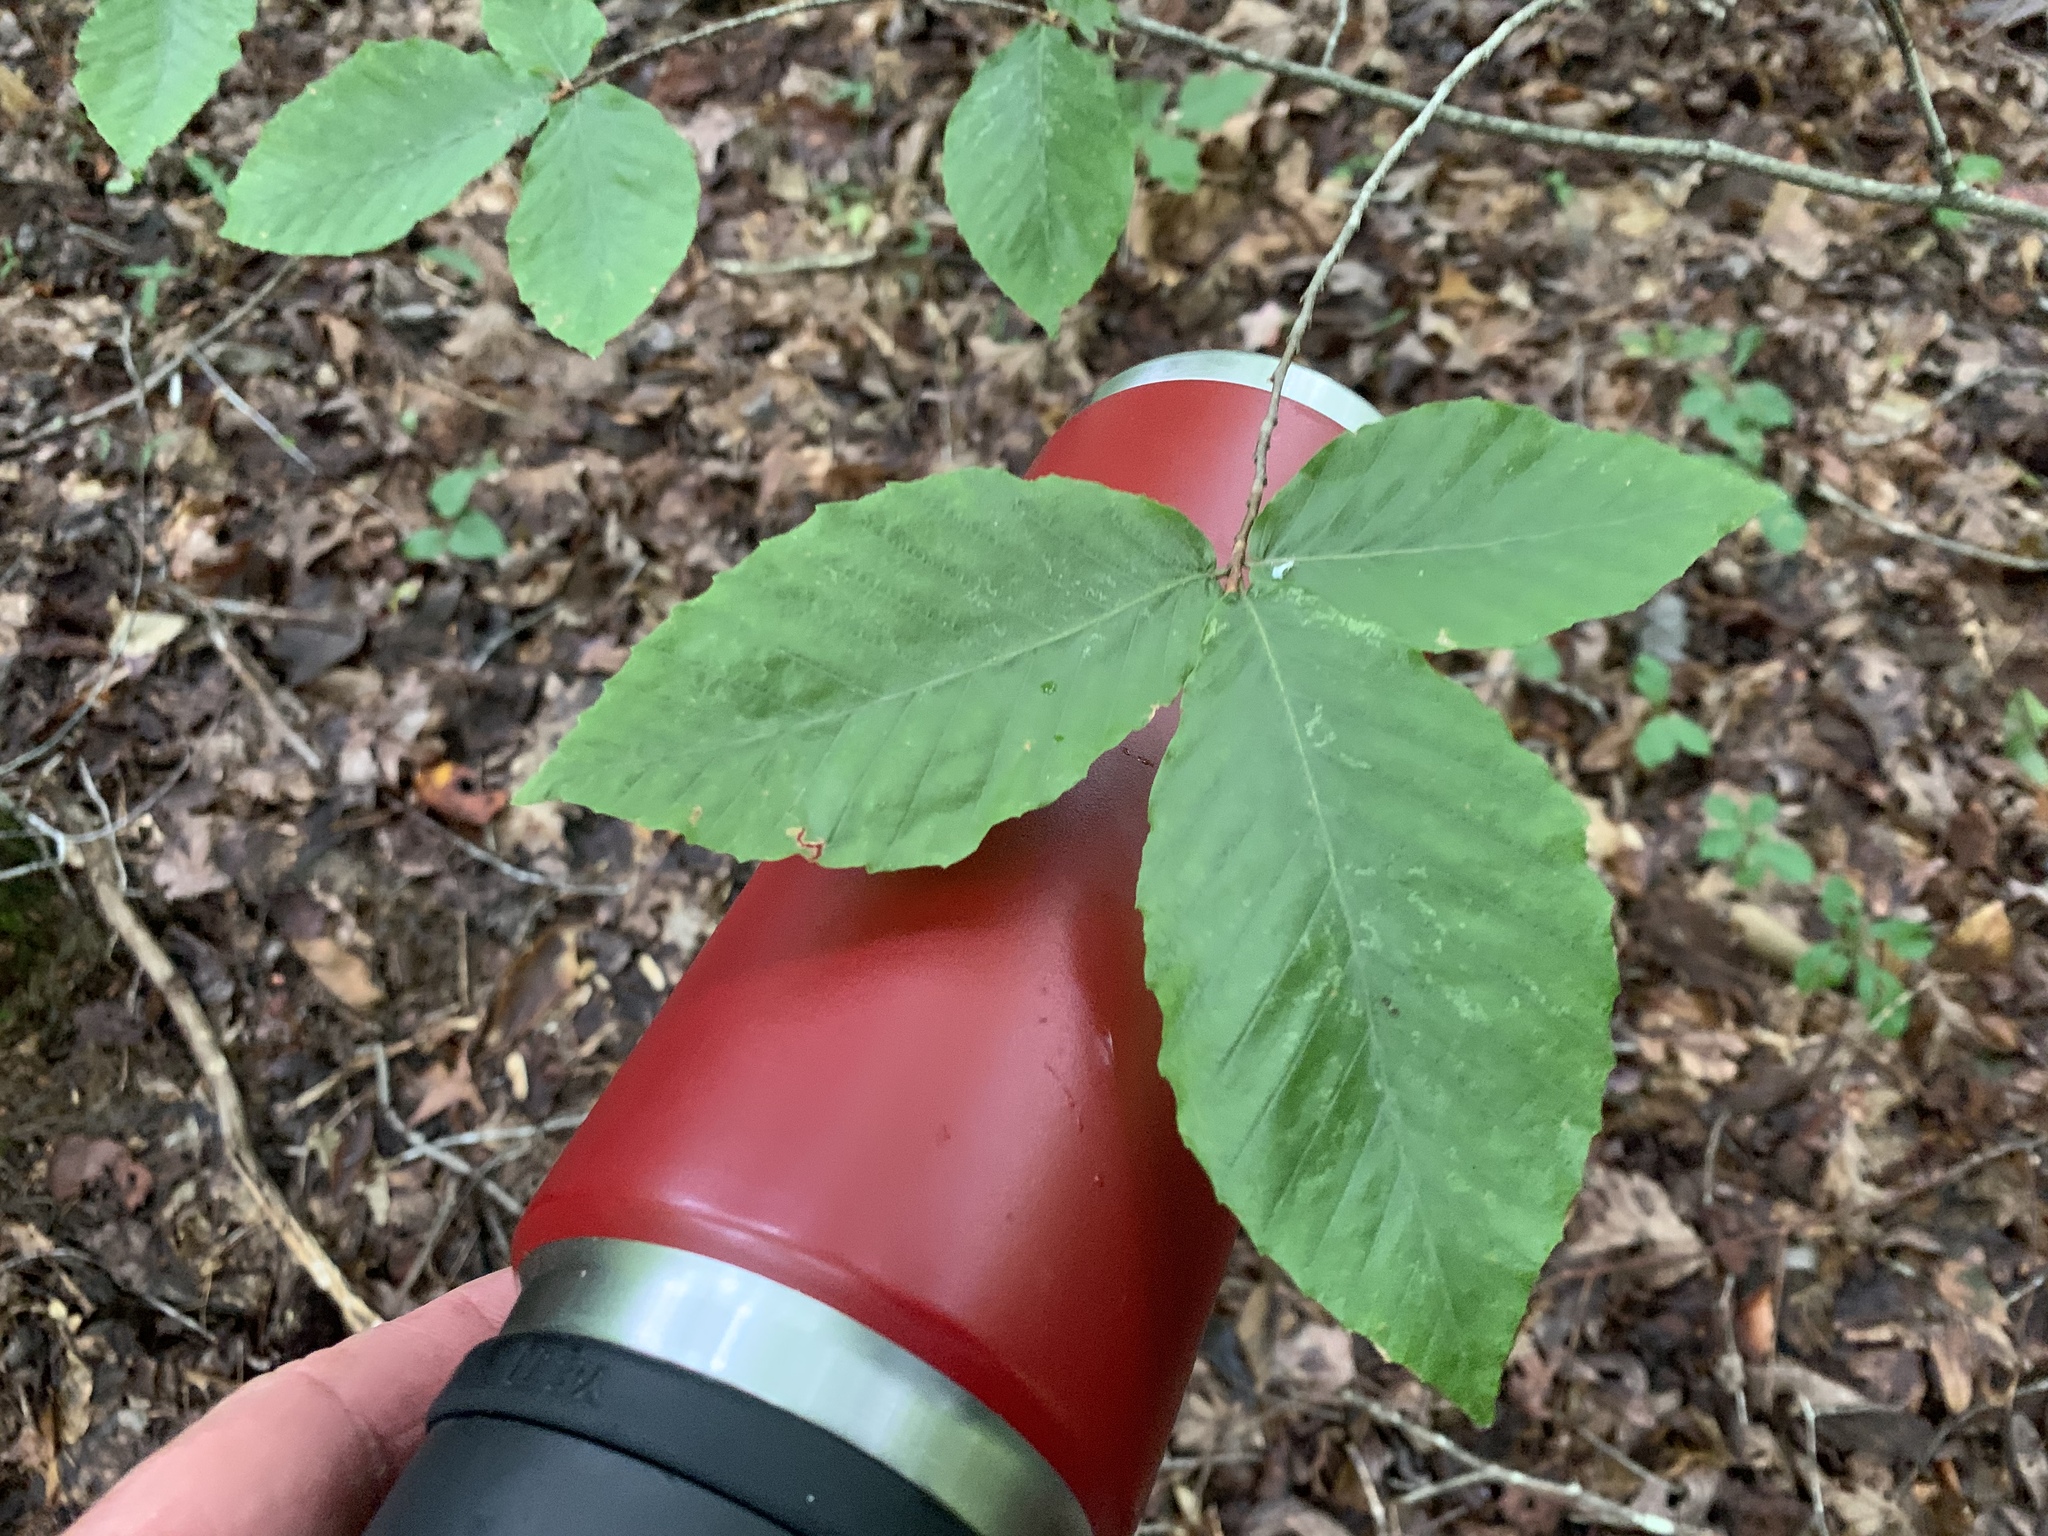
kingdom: Plantae
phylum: Tracheophyta
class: Magnoliopsida
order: Fagales
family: Fagaceae
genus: Fagus
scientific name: Fagus grandifolia
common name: American beech
